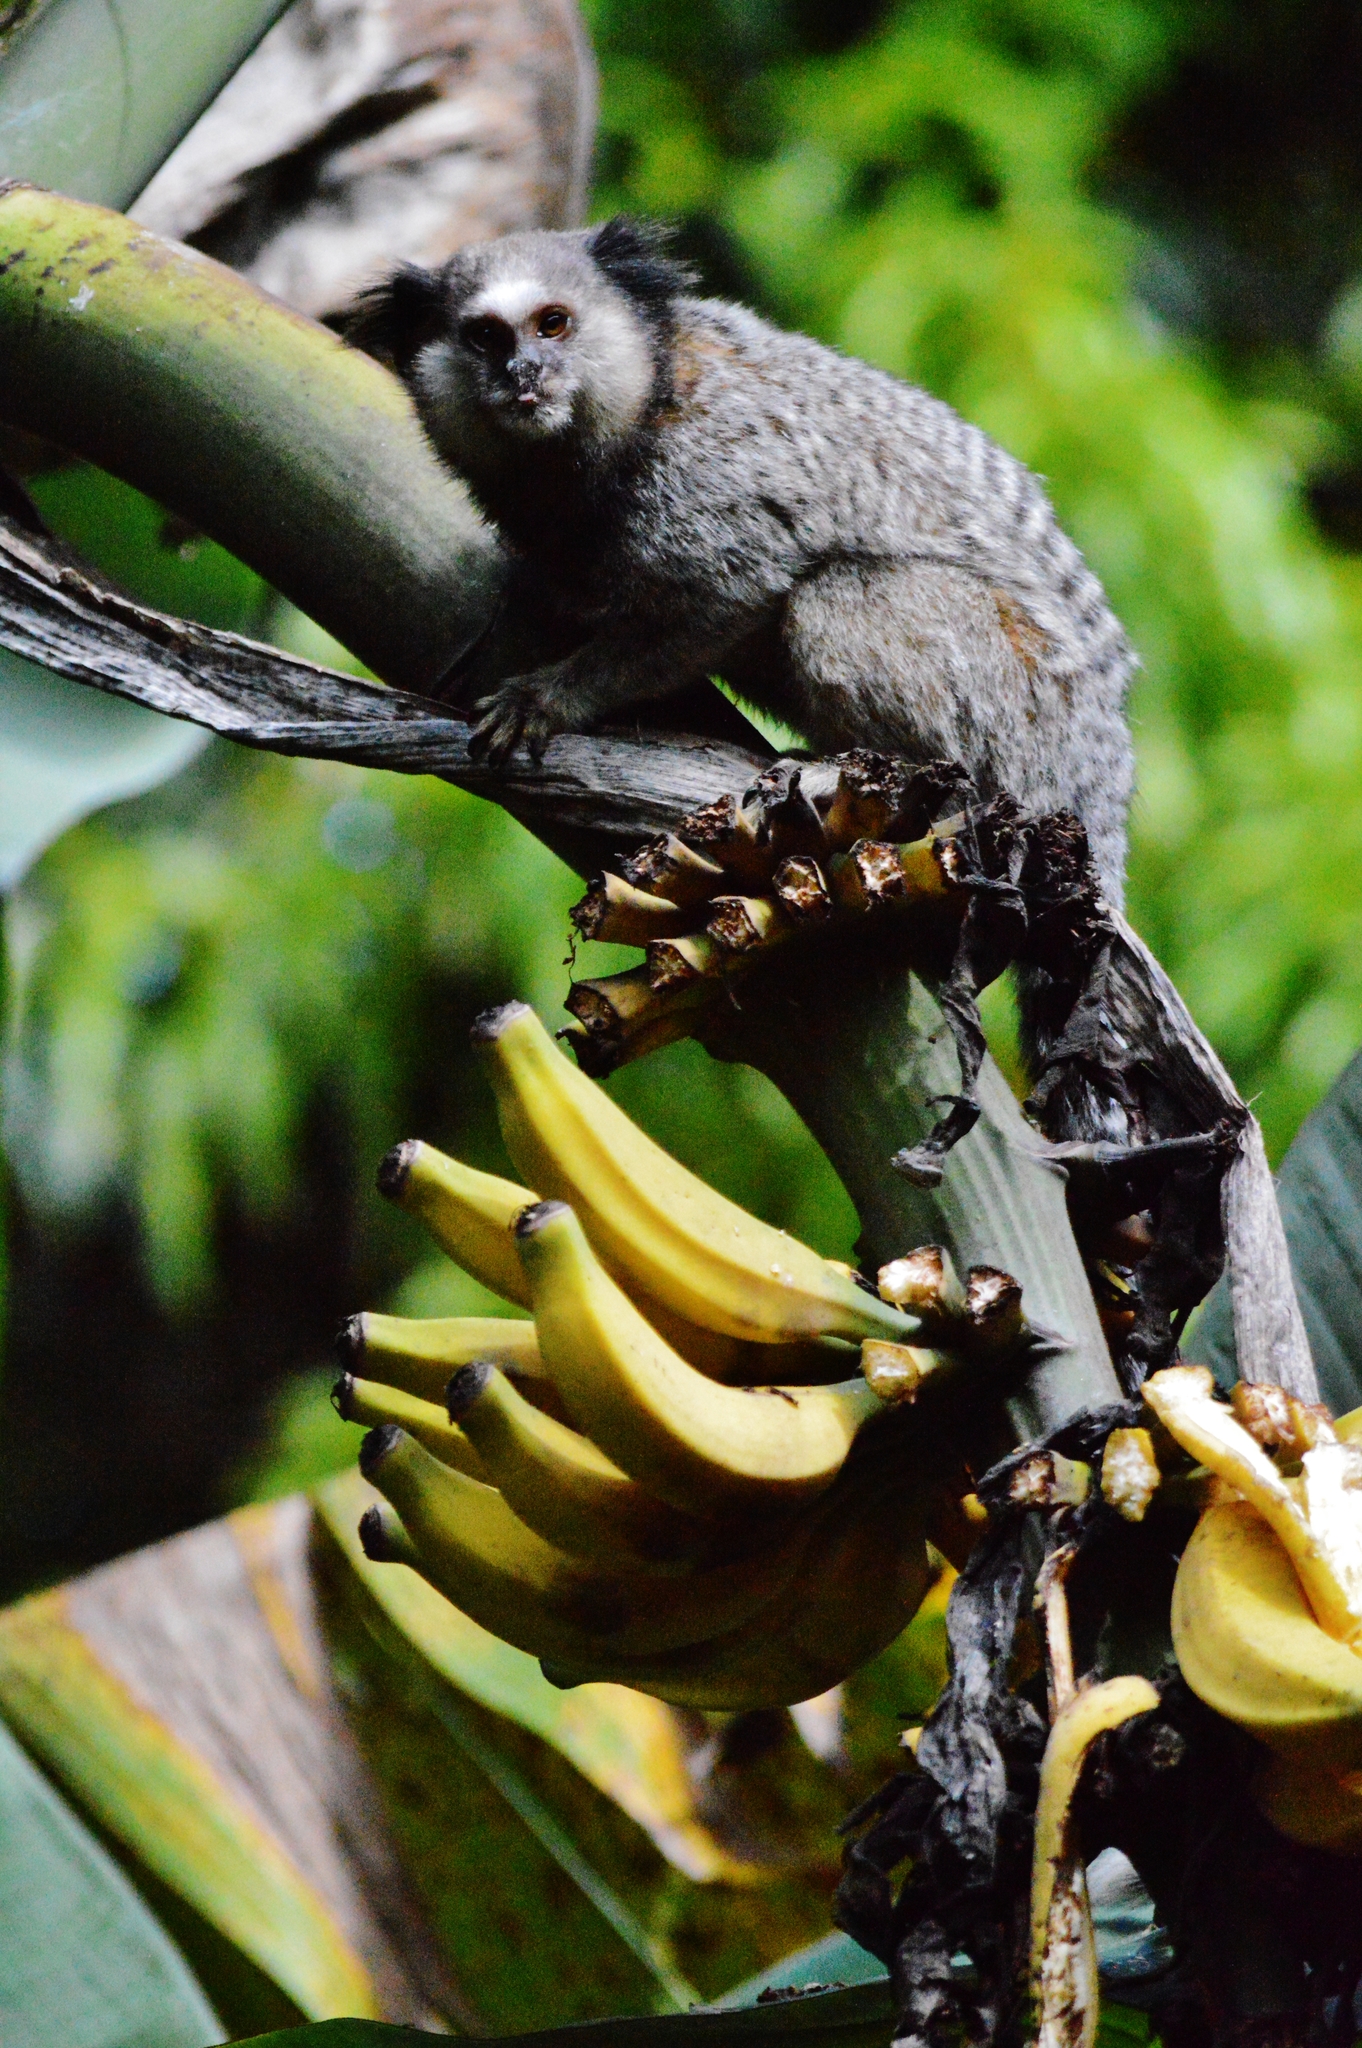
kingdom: Animalia
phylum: Chordata
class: Mammalia
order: Primates
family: Callitrichidae
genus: Callithrix
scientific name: Callithrix penicillata
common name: Black-tufted marmoset
